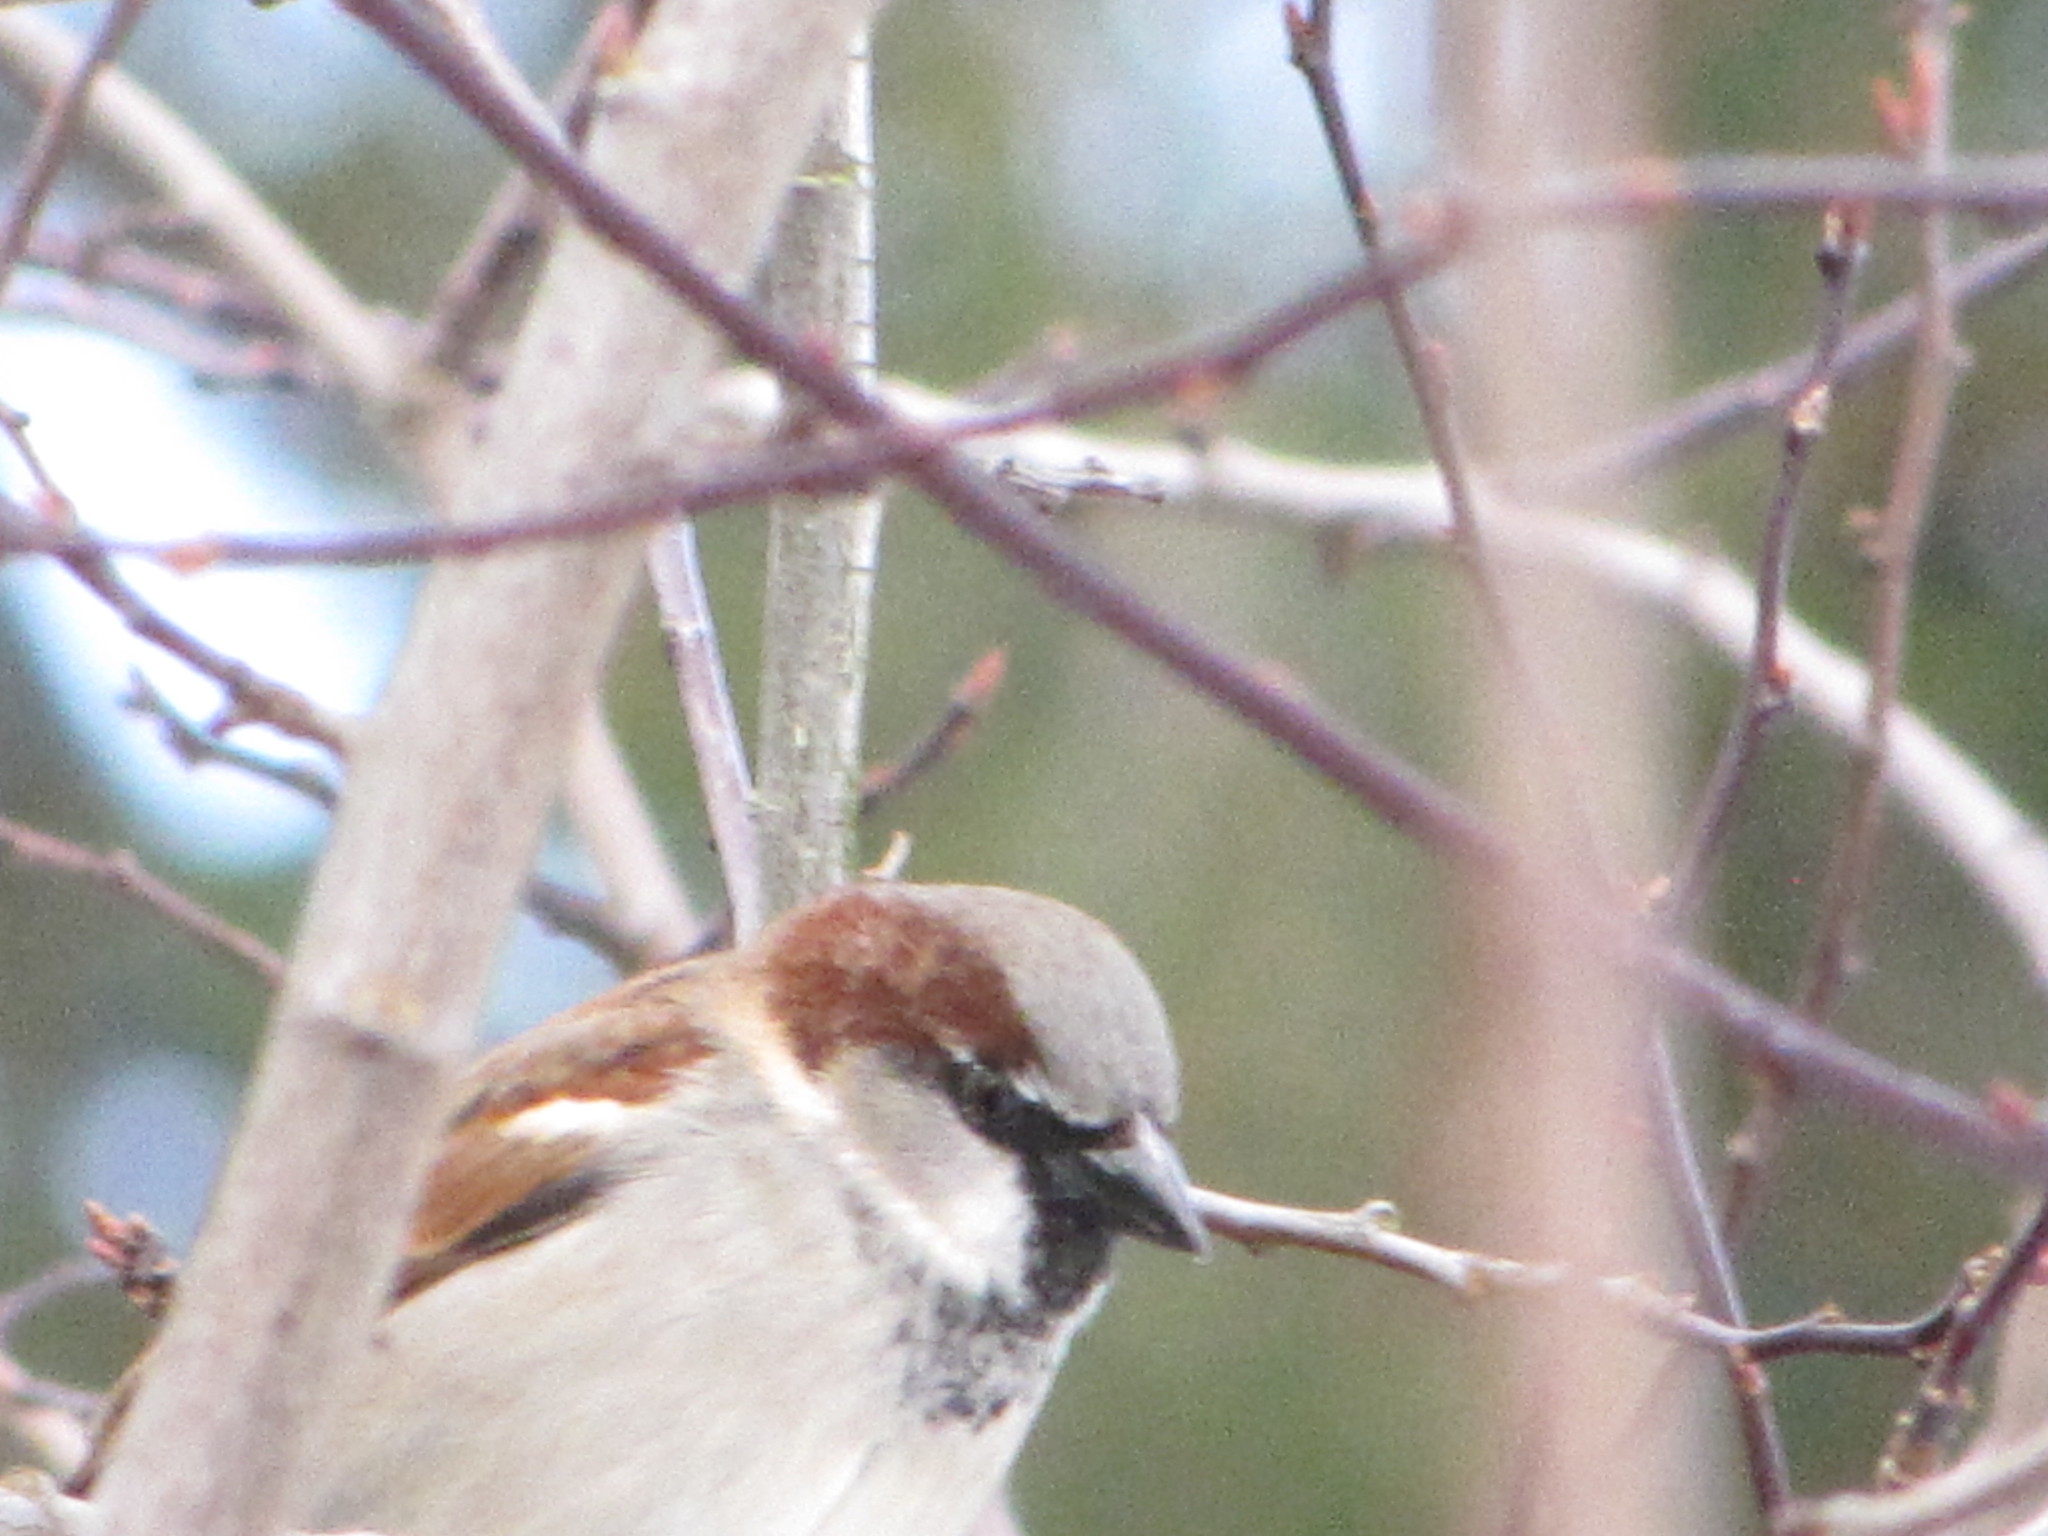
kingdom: Animalia
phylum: Chordata
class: Aves
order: Passeriformes
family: Passeridae
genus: Passer
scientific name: Passer domesticus
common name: House sparrow
